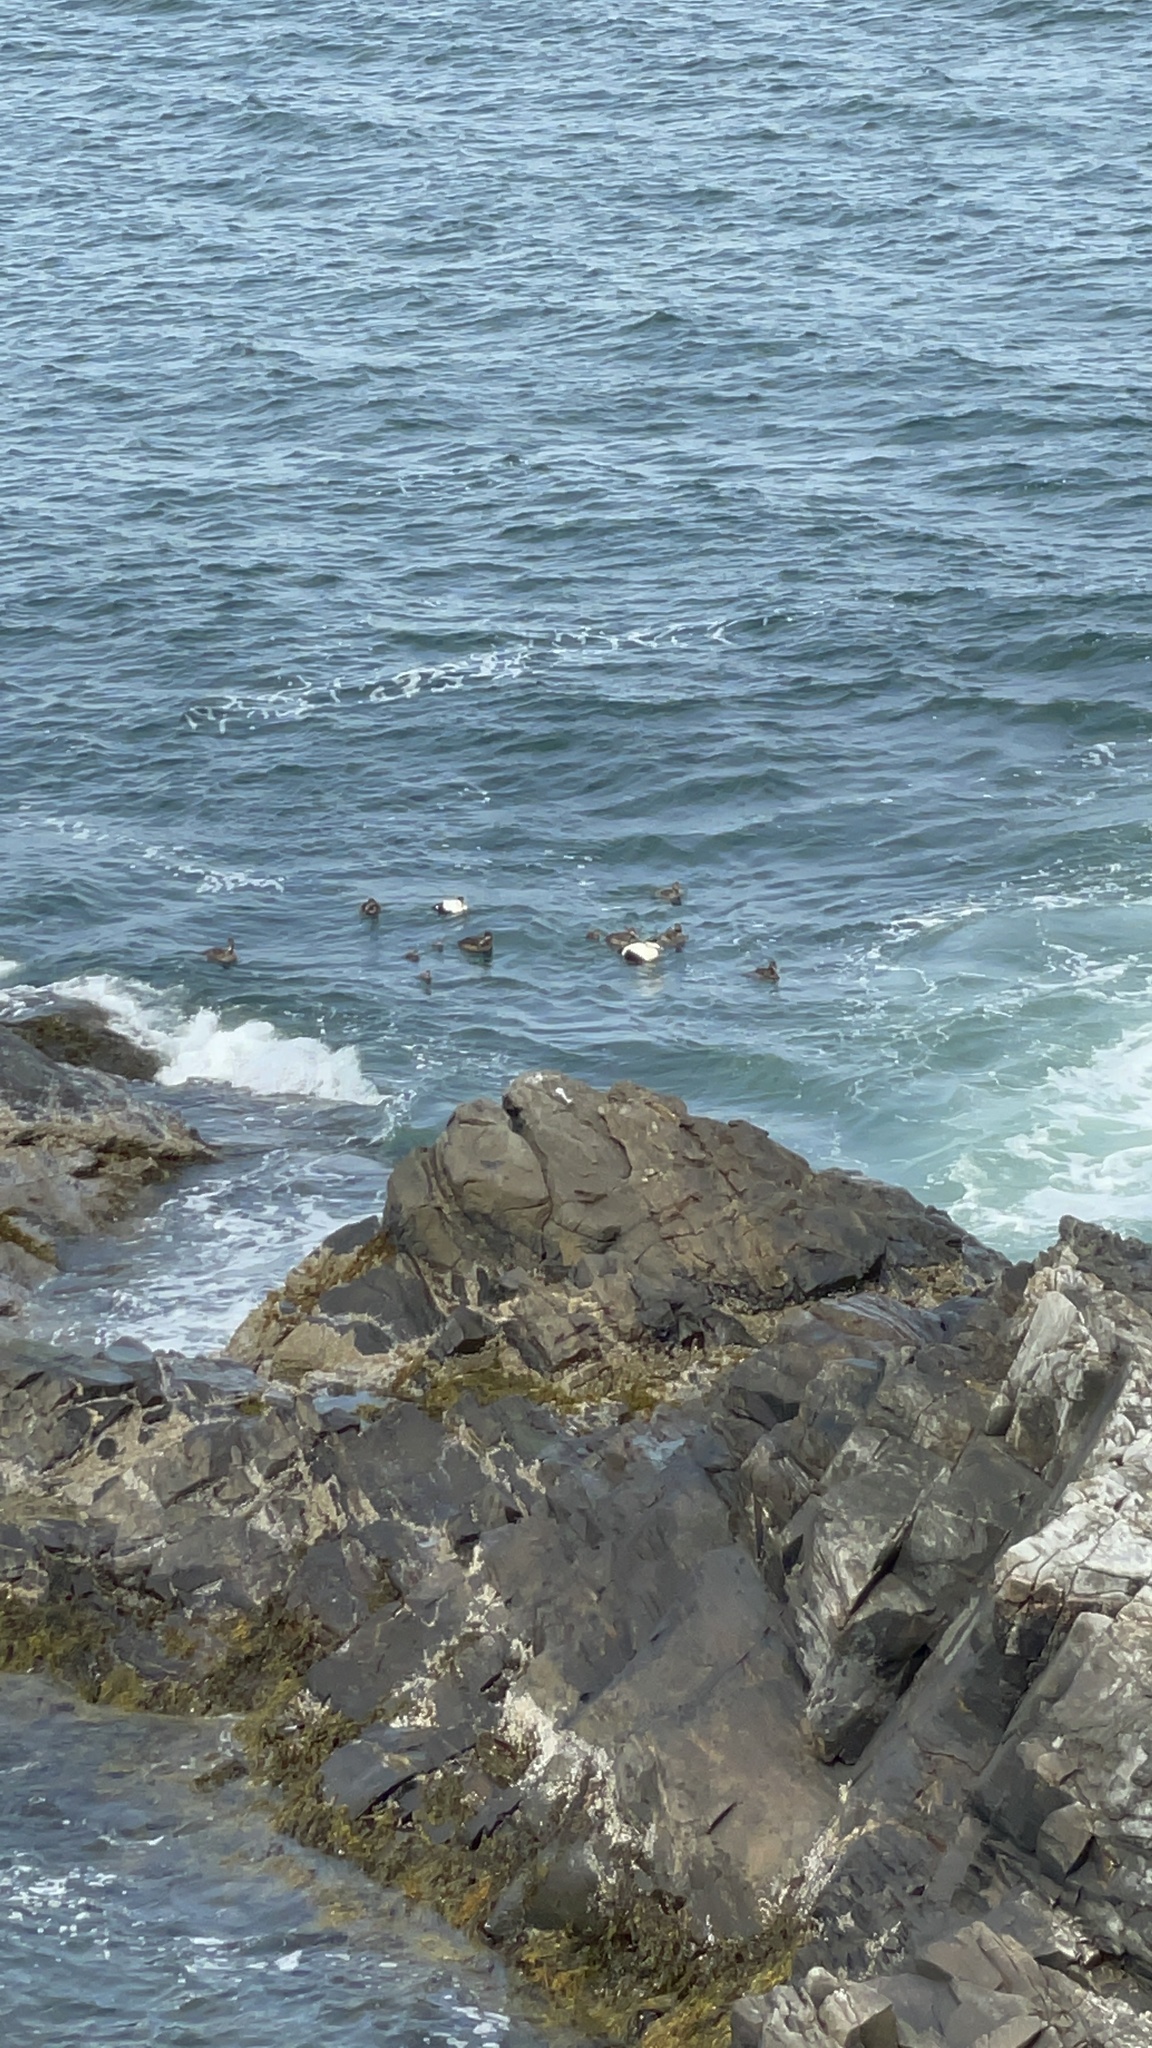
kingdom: Animalia
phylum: Chordata
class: Aves
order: Anseriformes
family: Anatidae
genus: Somateria
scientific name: Somateria mollissima
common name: Common eider
